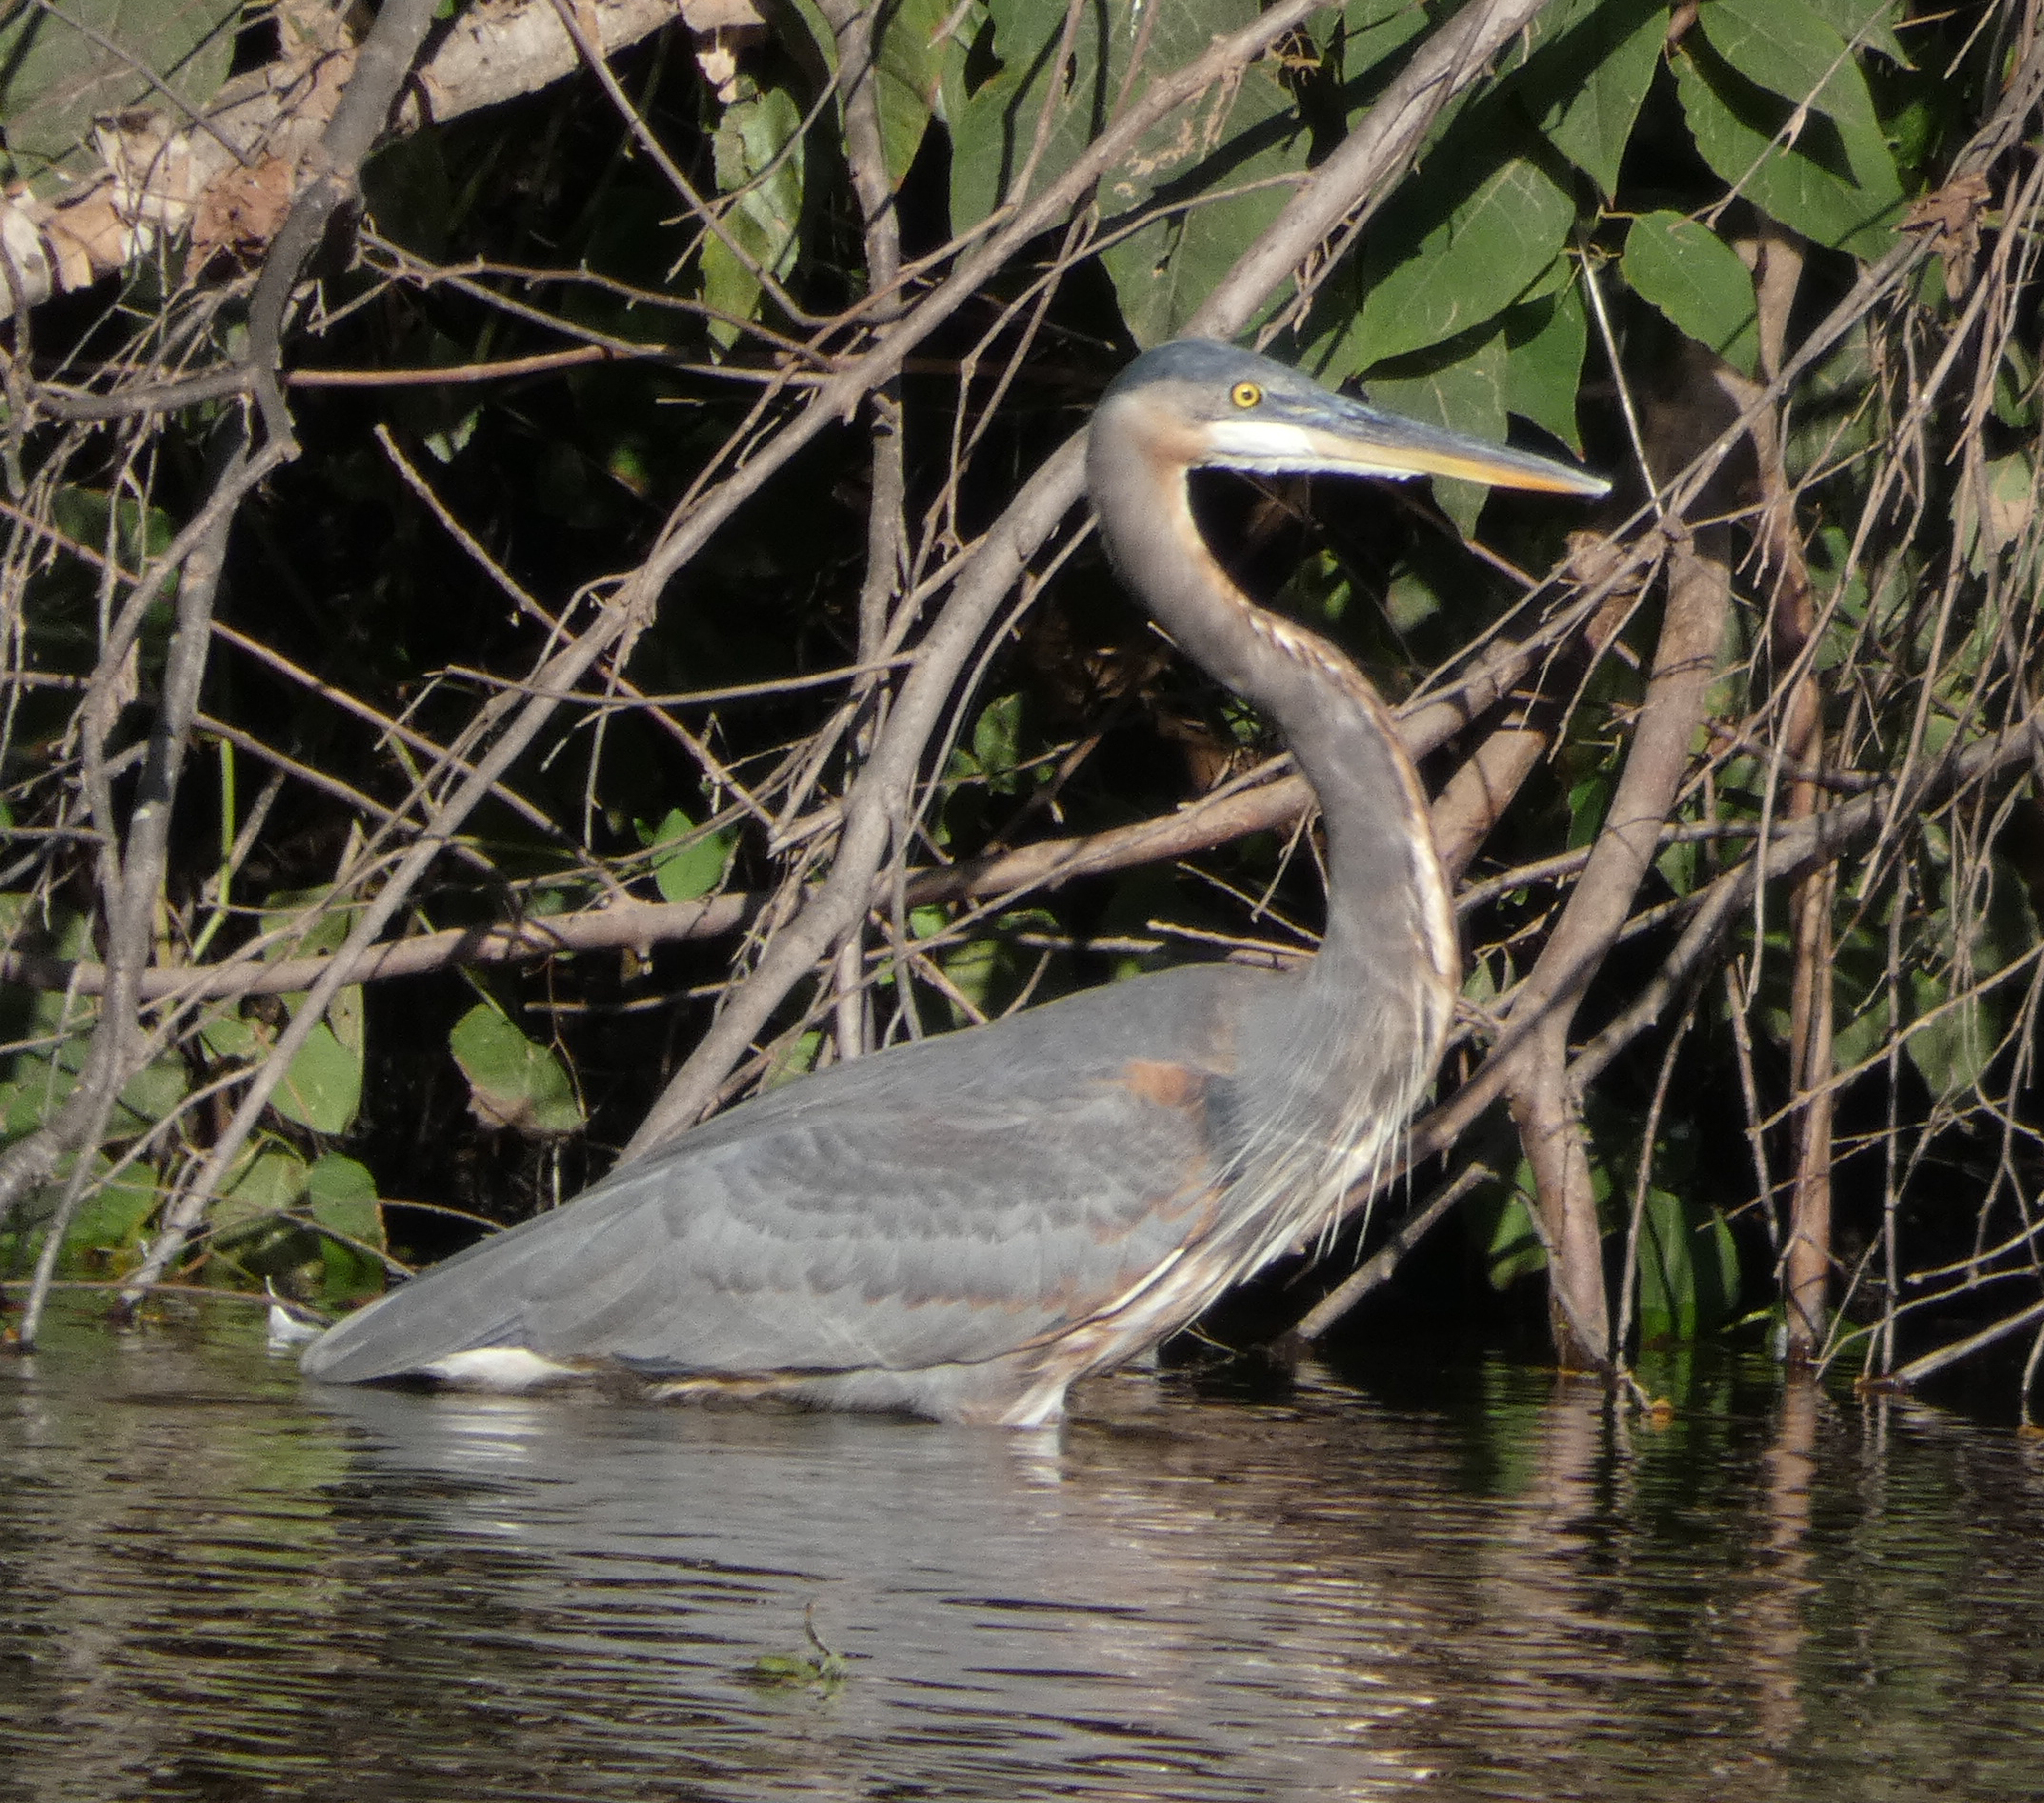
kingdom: Animalia
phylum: Chordata
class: Aves
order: Pelecaniformes
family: Ardeidae
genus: Ardea
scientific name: Ardea herodias
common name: Great blue heron
